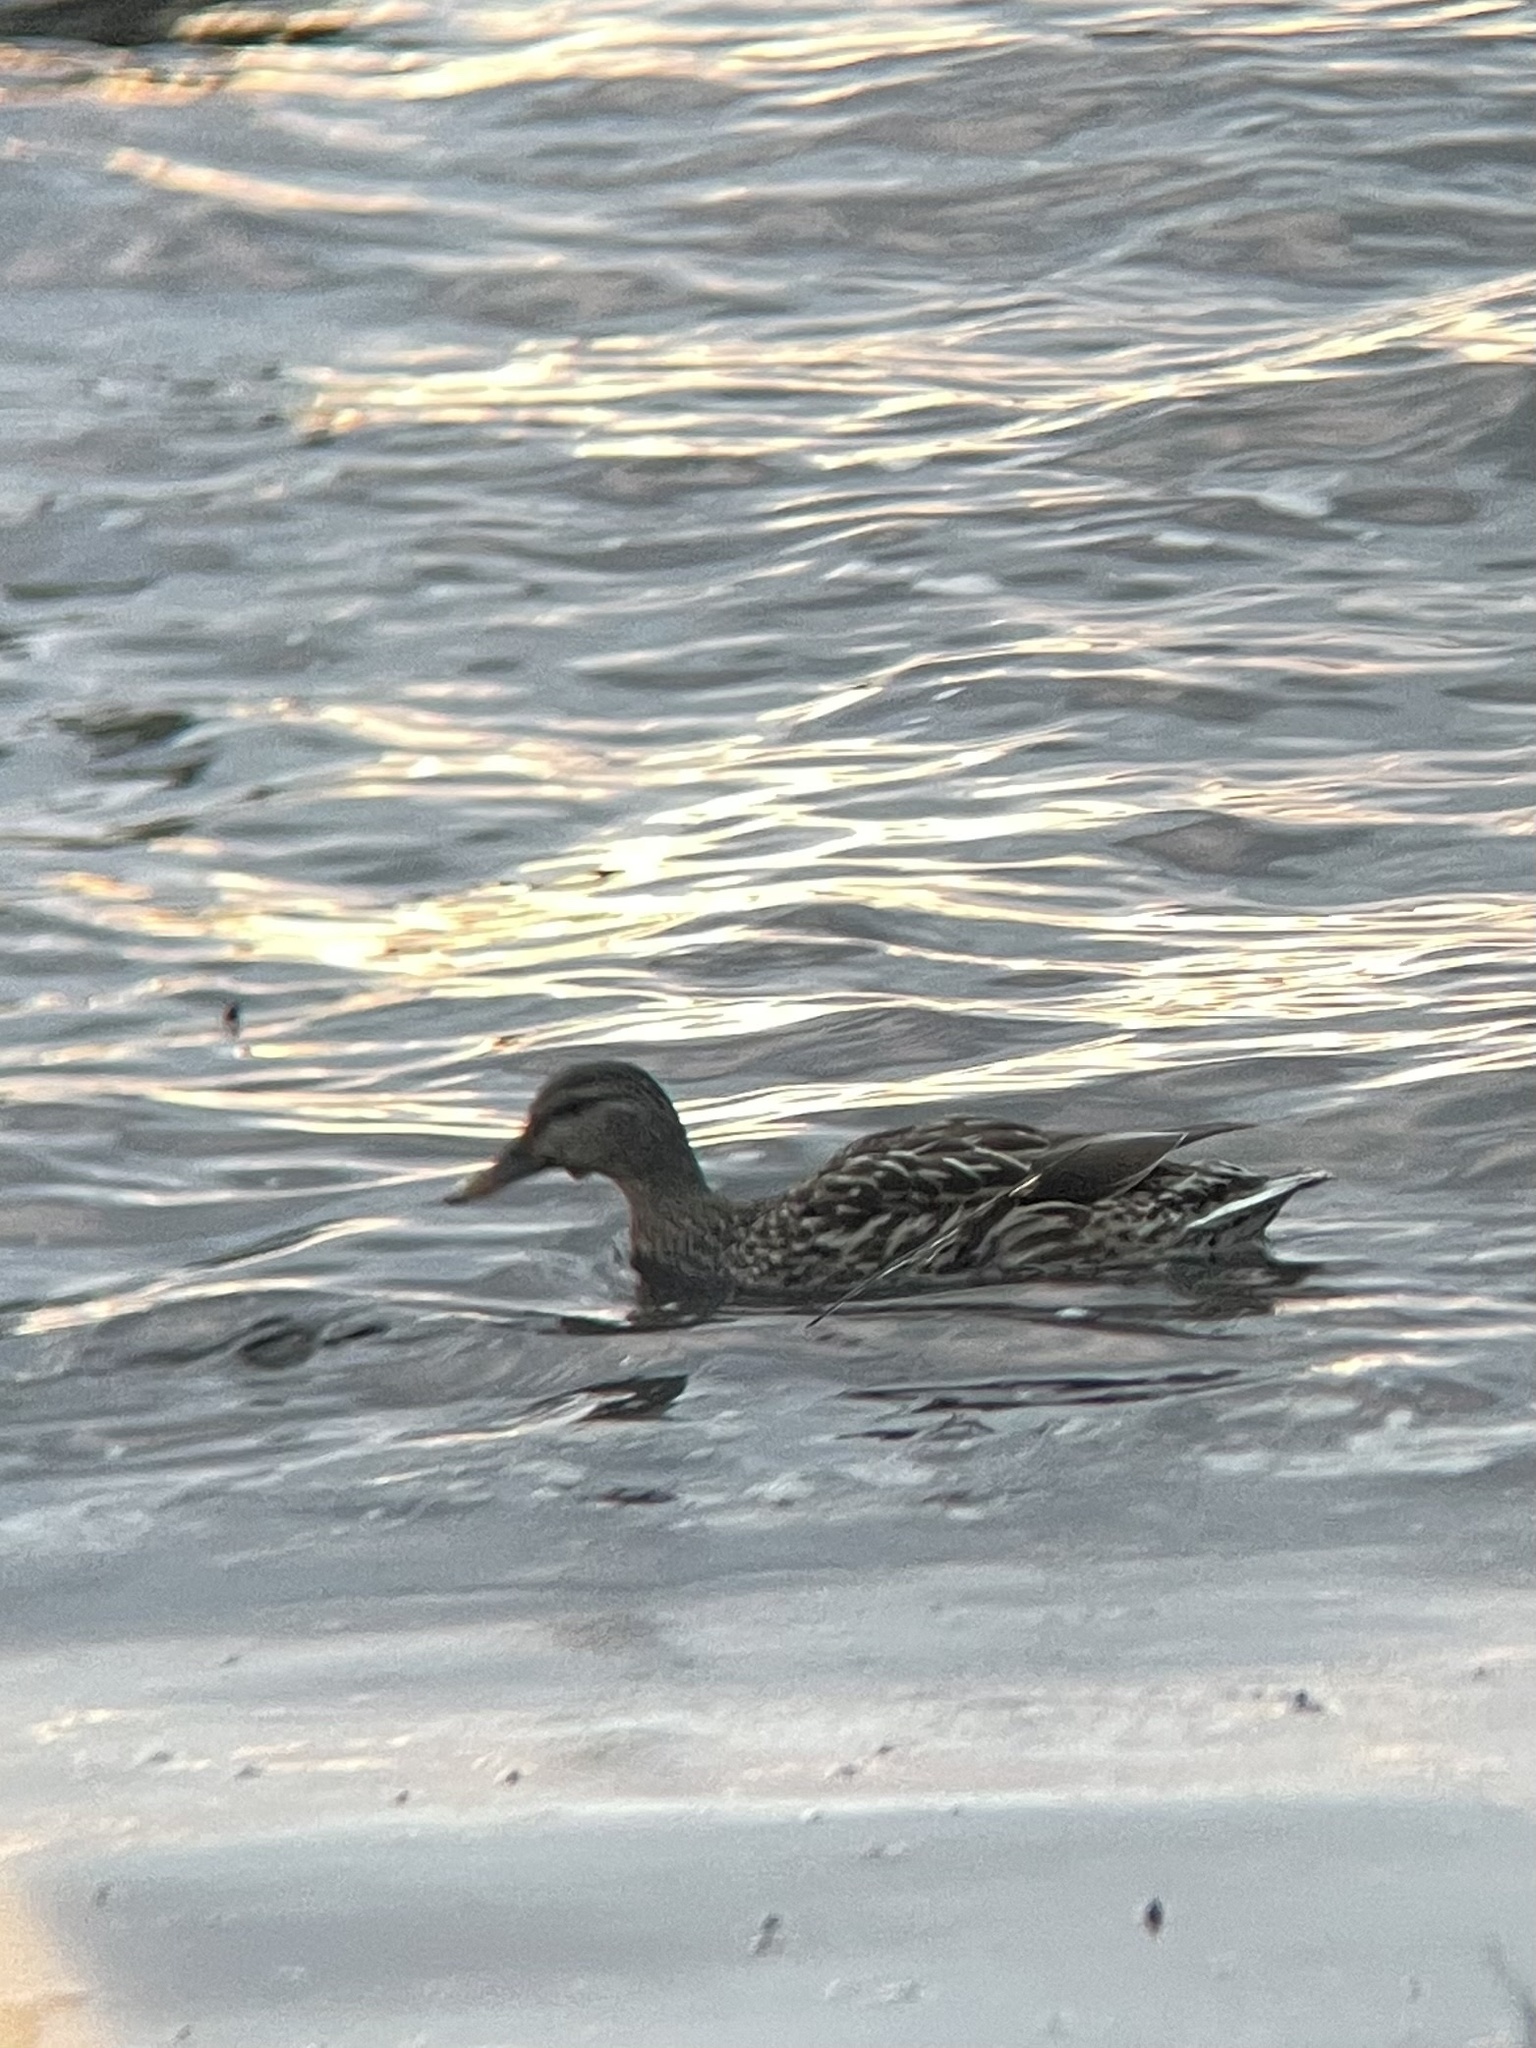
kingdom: Animalia
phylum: Chordata
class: Aves
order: Anseriformes
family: Anatidae
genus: Anas
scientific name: Anas platyrhynchos
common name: Mallard
